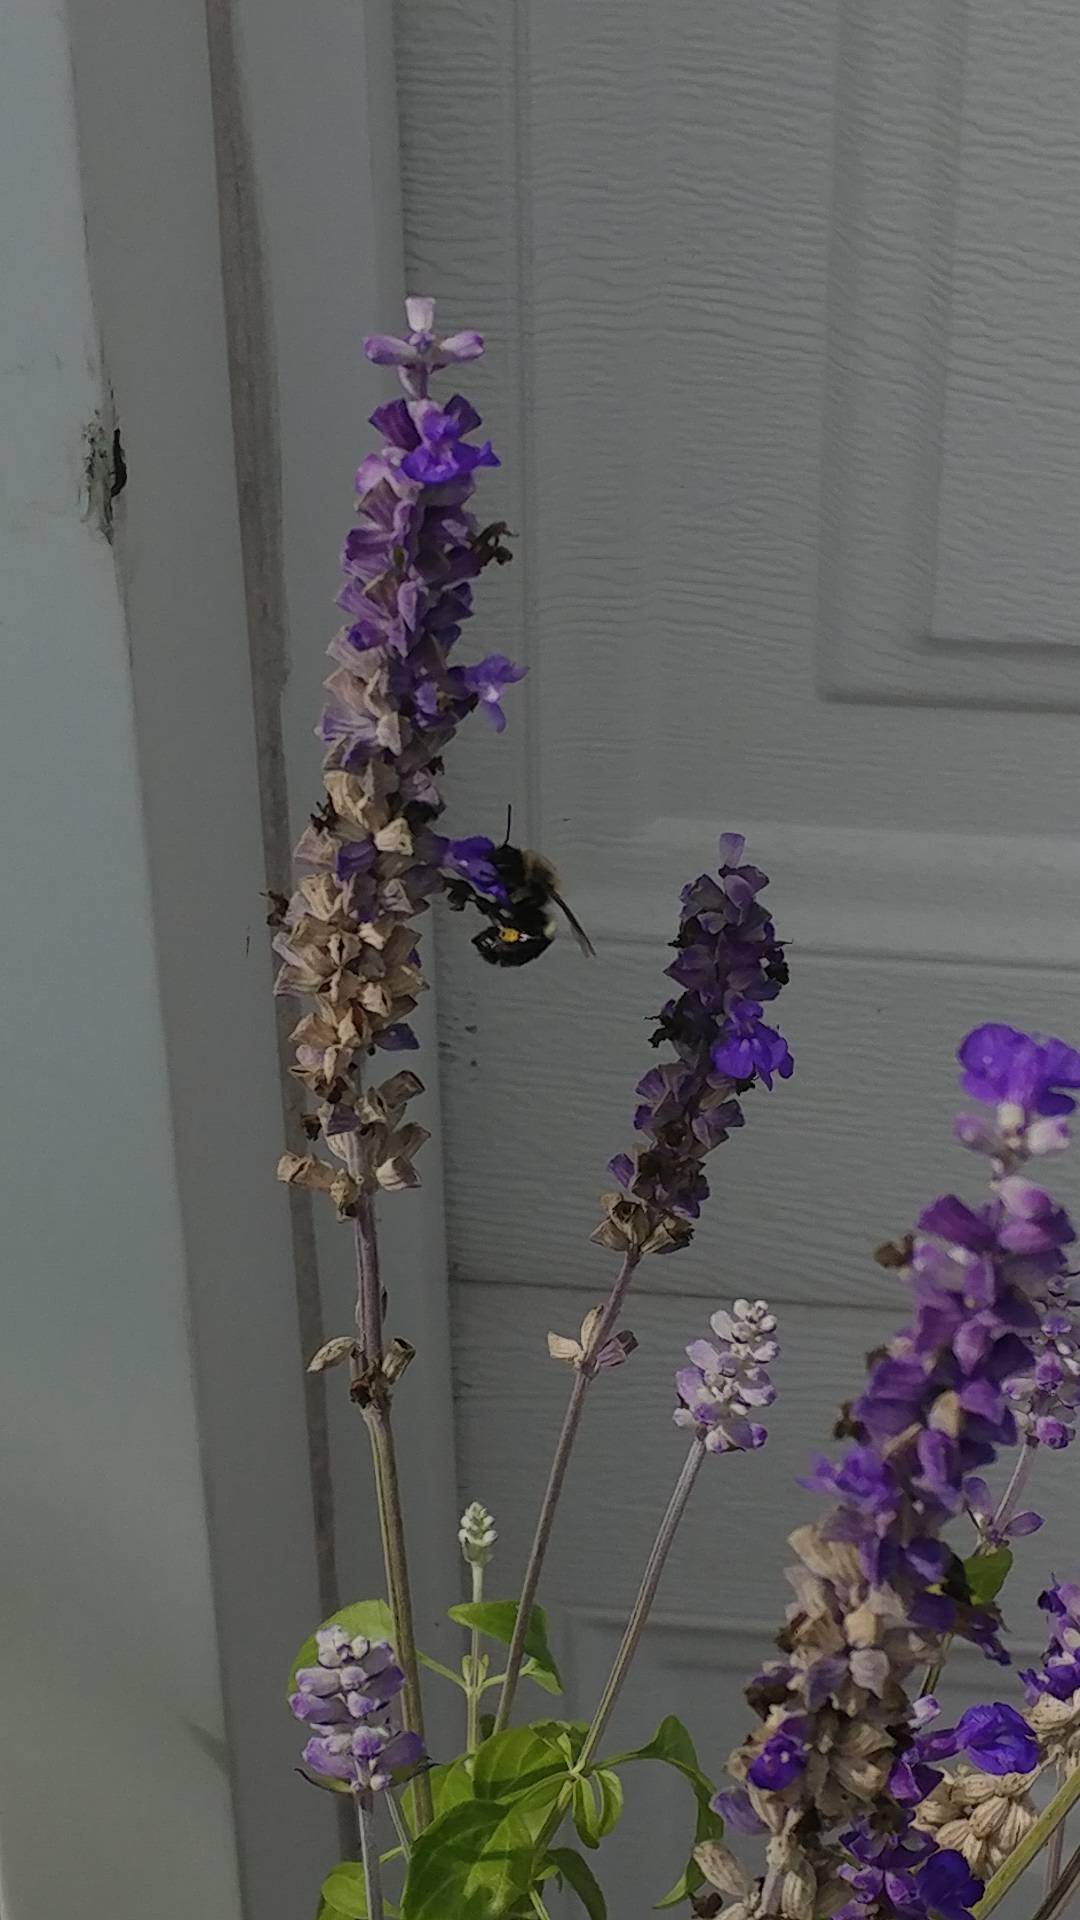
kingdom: Animalia
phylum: Arthropoda
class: Insecta
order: Hymenoptera
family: Apidae
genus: Bombus
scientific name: Bombus impatiens
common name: Common eastern bumble bee
